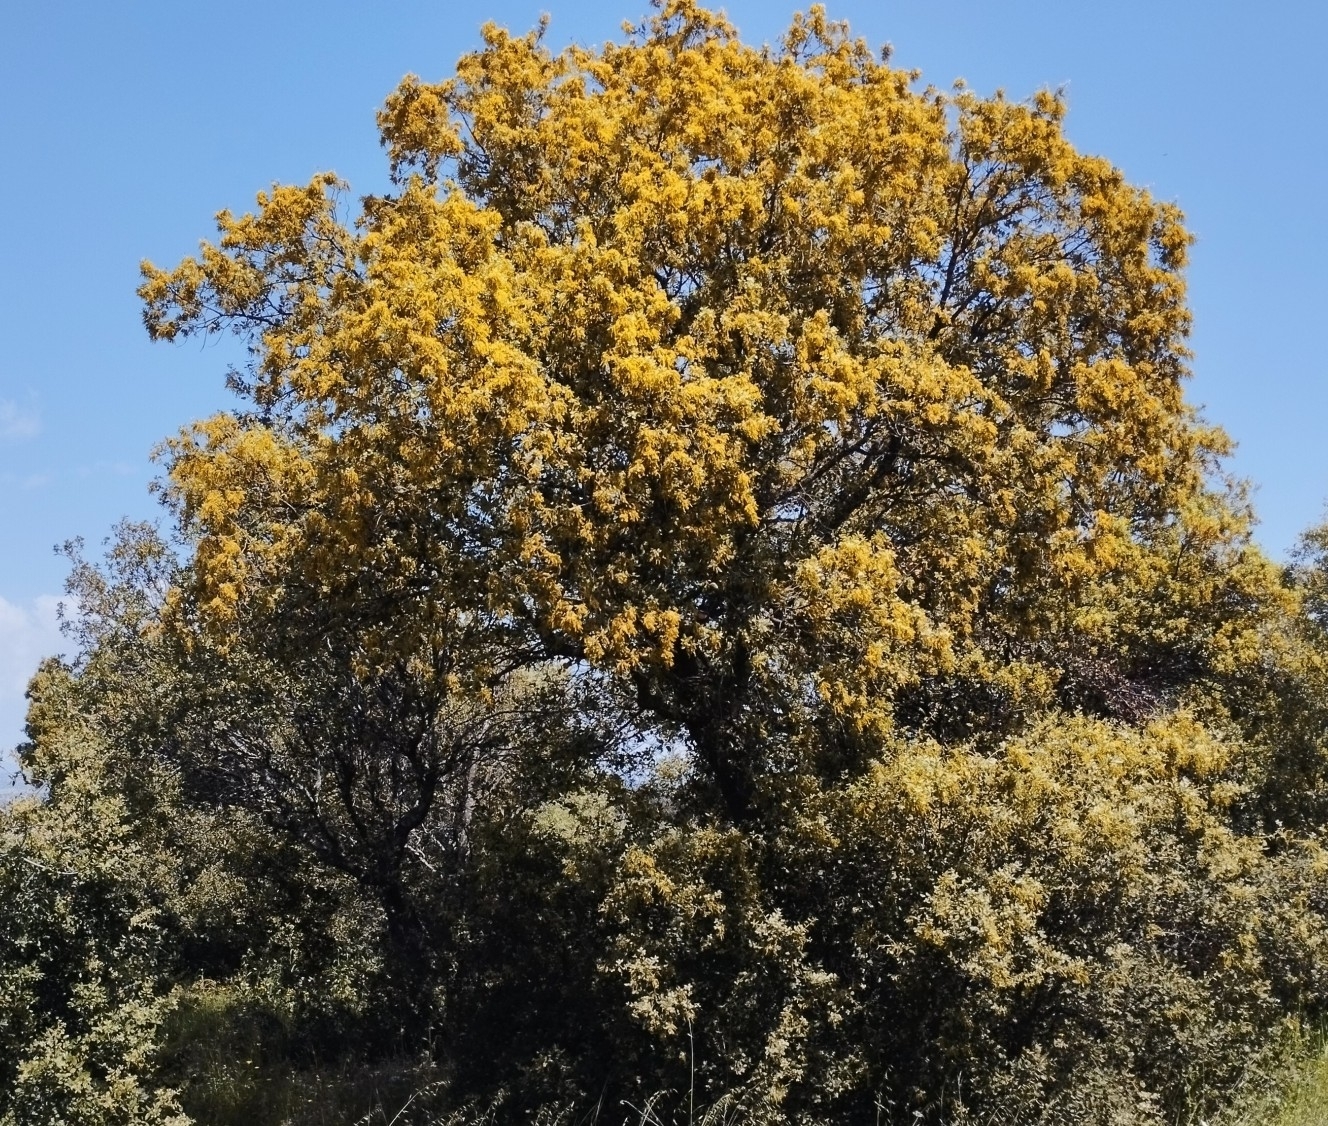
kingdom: Plantae
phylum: Tracheophyta
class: Magnoliopsida
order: Fagales
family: Fagaceae
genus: Quercus
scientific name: Quercus rotundifolia
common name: Holm oak
